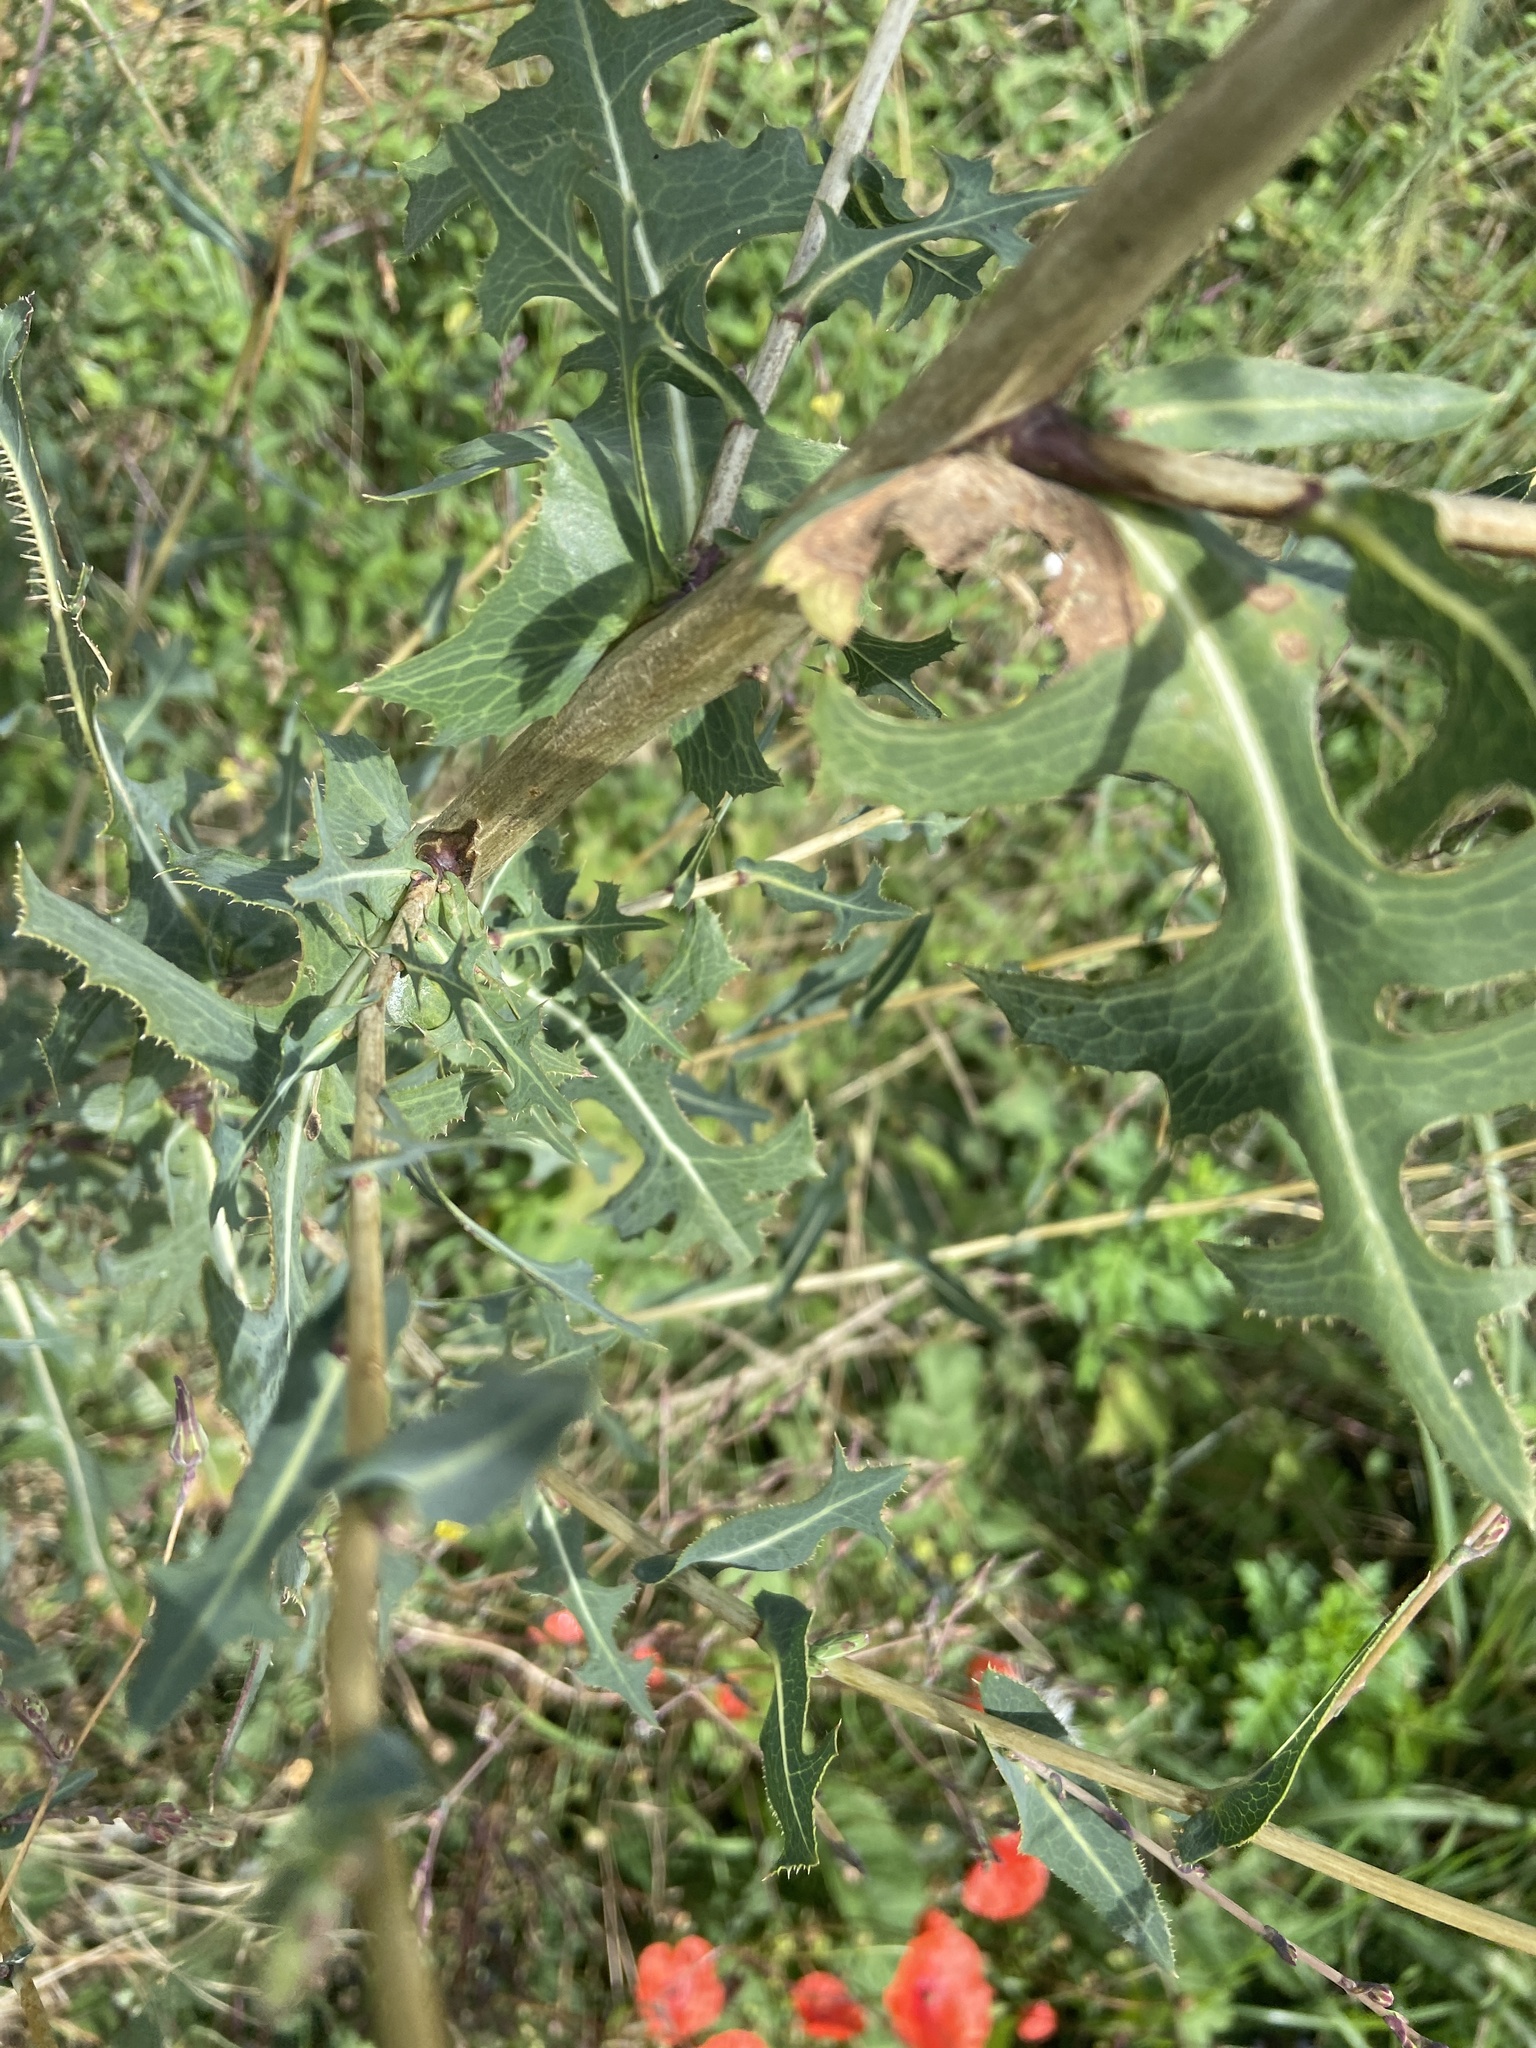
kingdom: Plantae
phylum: Tracheophyta
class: Magnoliopsida
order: Asterales
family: Asteraceae
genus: Lactuca
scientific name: Lactuca serriola
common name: Prickly lettuce
